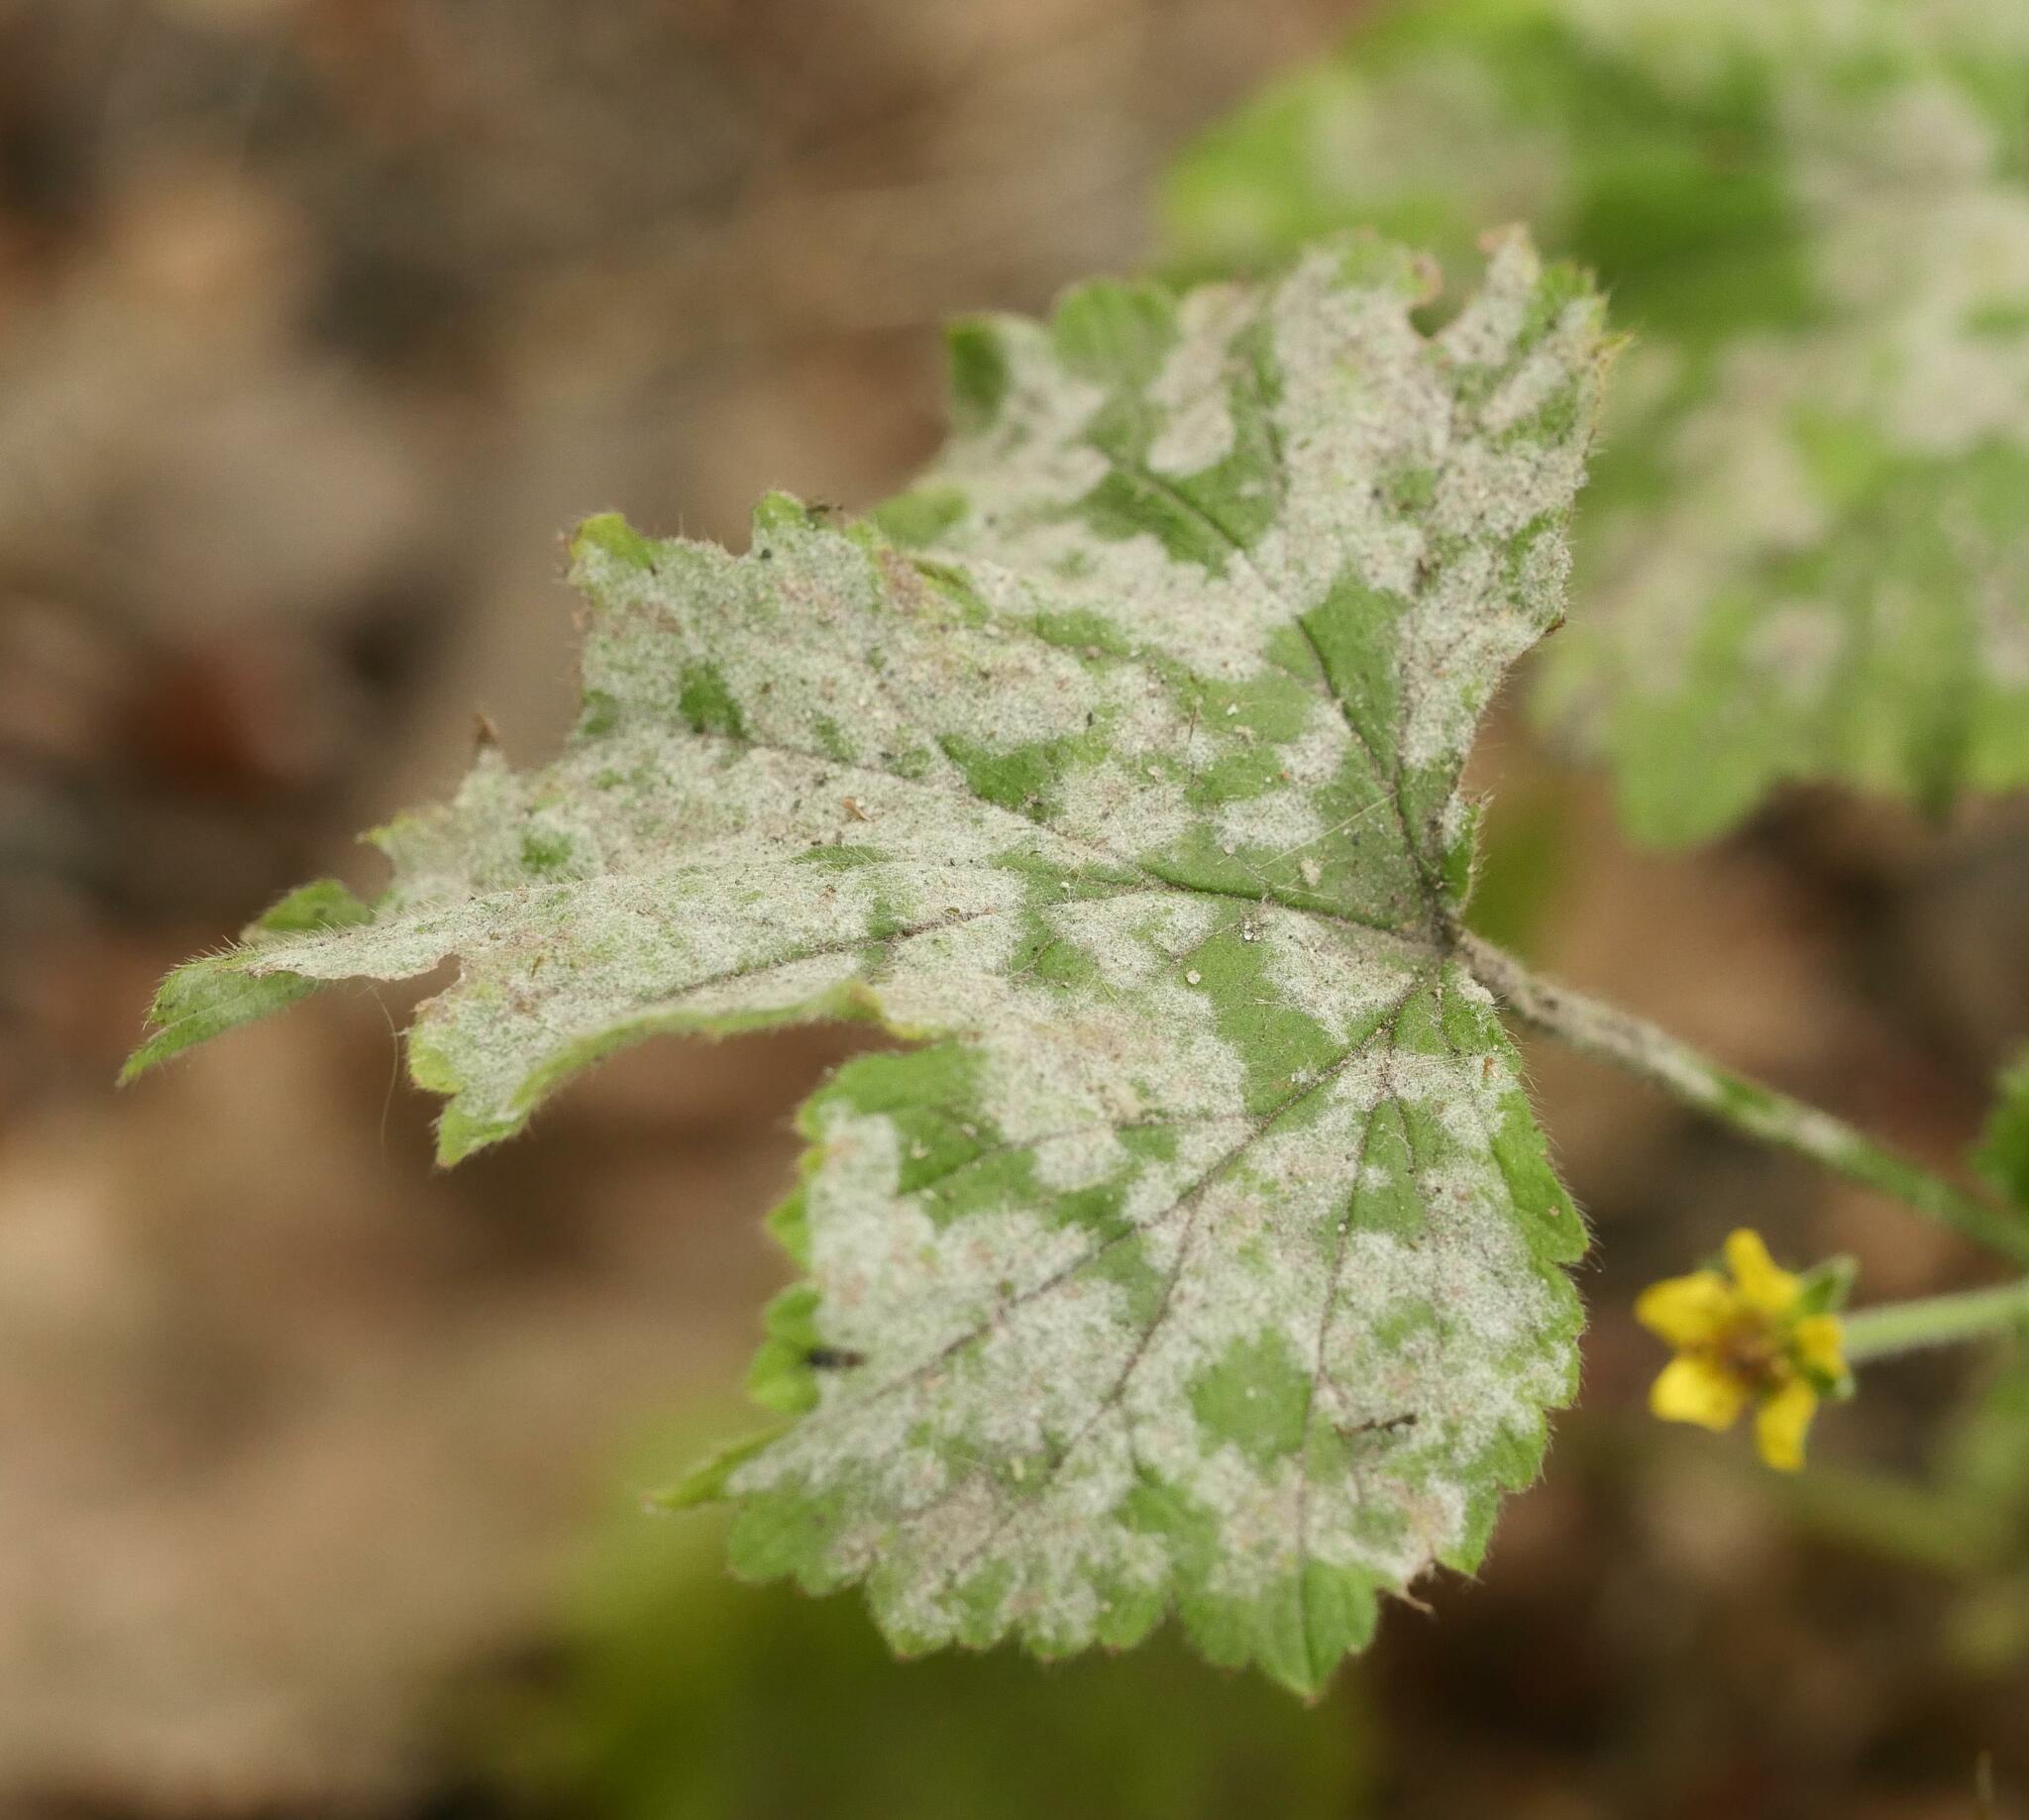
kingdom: Fungi
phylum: Ascomycota
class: Leotiomycetes
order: Helotiales
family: Erysiphaceae
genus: Podosphaera
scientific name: Podosphaera aphanis
